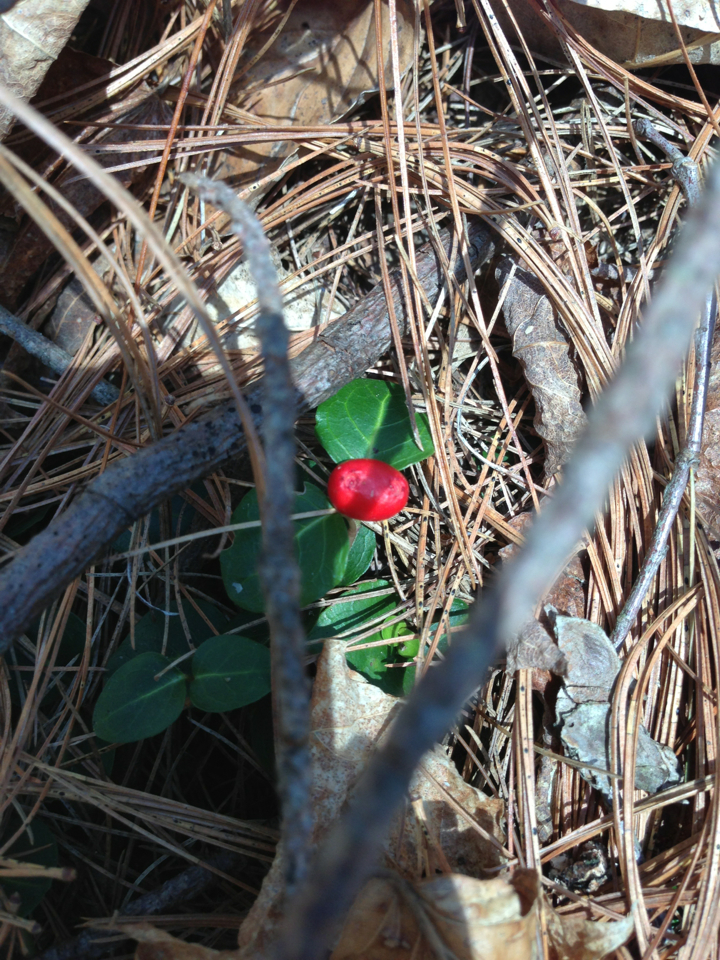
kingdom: Plantae
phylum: Tracheophyta
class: Magnoliopsida
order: Gentianales
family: Rubiaceae
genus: Mitchella
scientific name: Mitchella repens
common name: Partridge-berry
